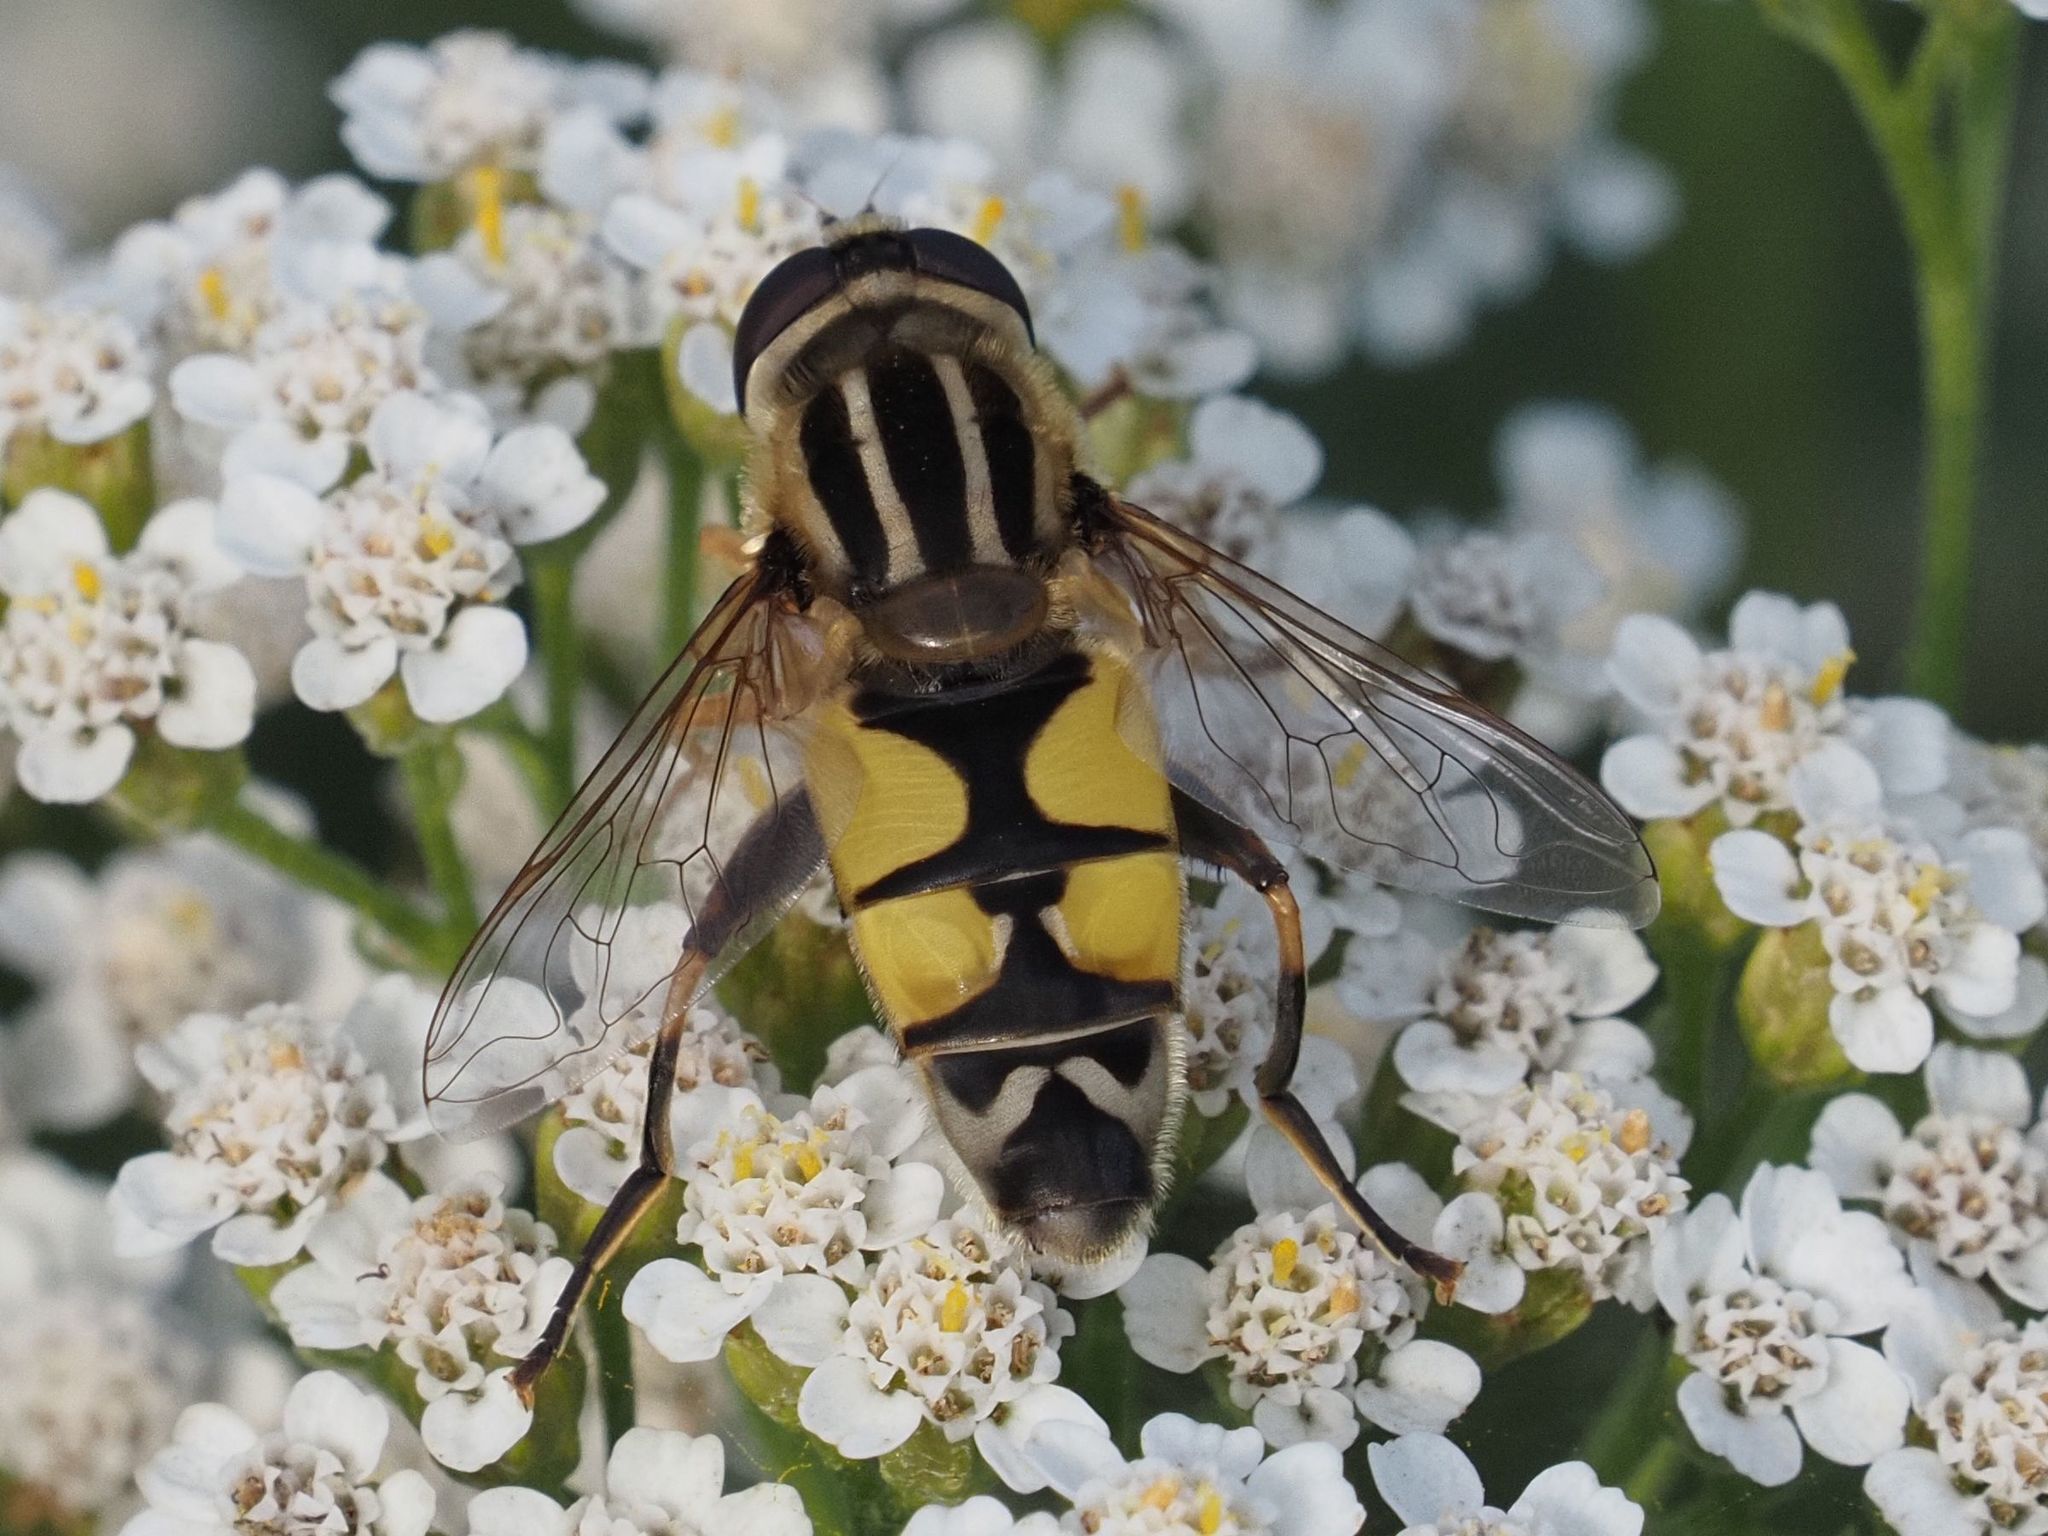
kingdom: Animalia
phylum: Arthropoda
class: Insecta
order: Diptera
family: Syrphidae
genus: Helophilus
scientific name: Helophilus trivittatus
